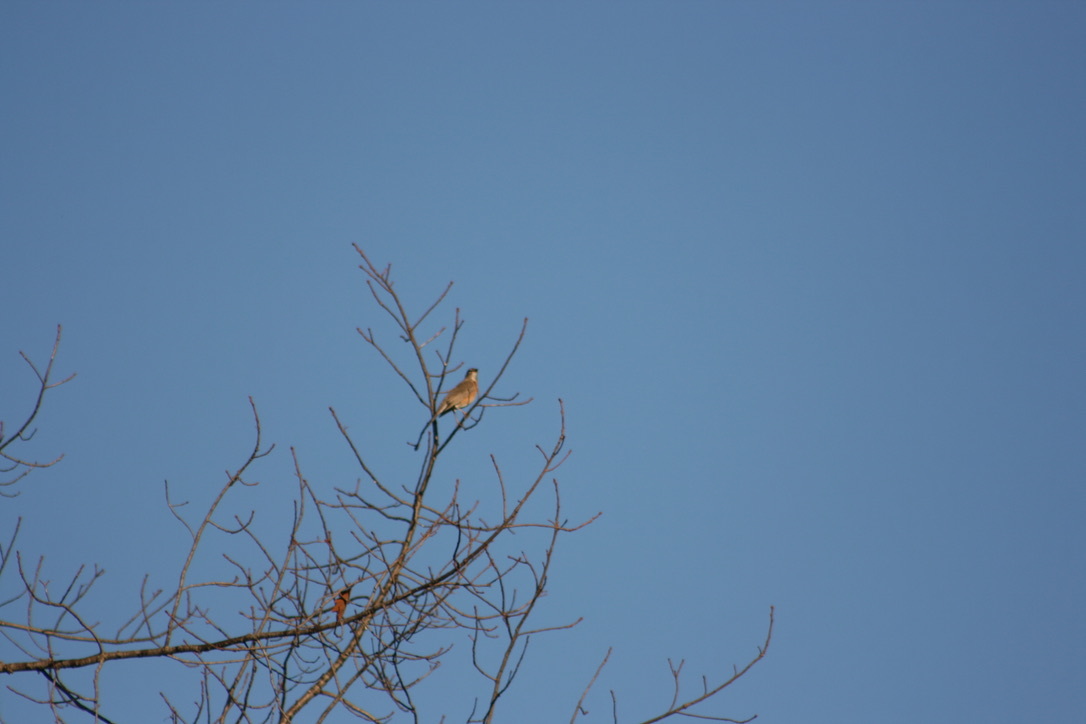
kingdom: Animalia
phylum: Chordata
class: Aves
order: Passeriformes
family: Turdidae
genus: Turdus
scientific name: Turdus migratorius
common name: American robin
